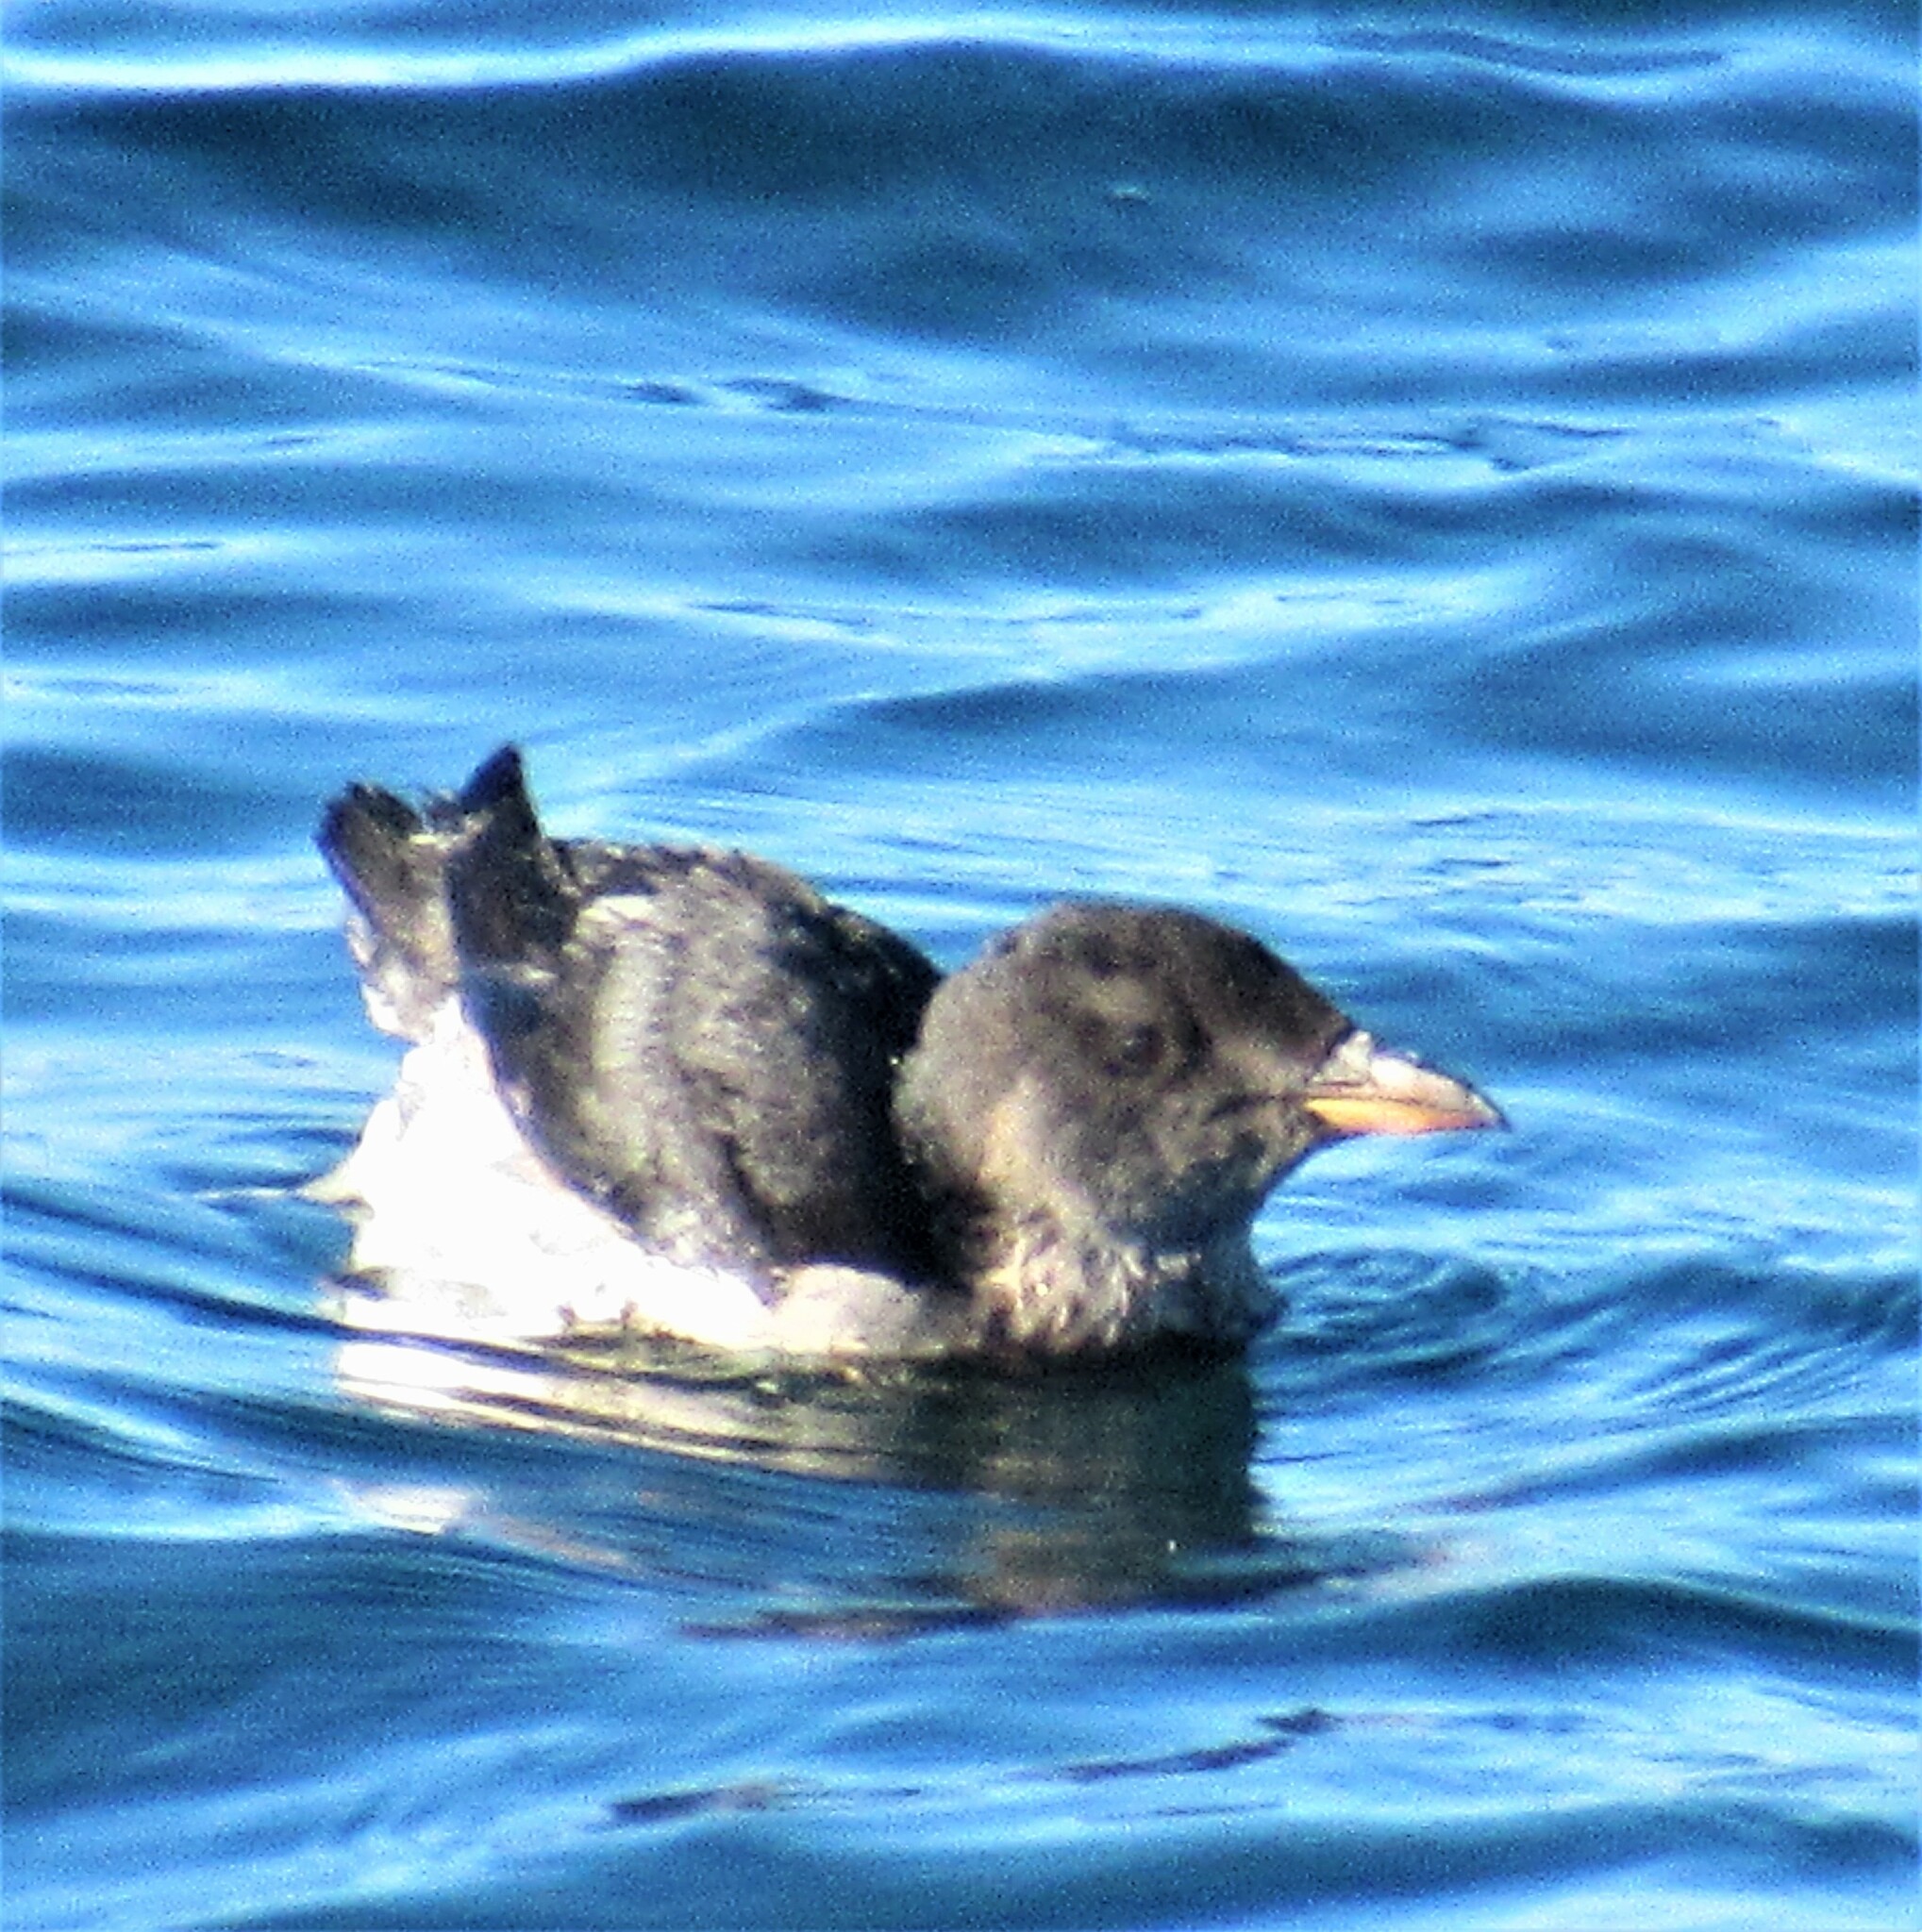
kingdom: Animalia
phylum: Chordata
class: Aves
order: Charadriiformes
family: Alcidae
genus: Cerorhinca
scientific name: Cerorhinca monocerata
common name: Rhinoceros auklet
